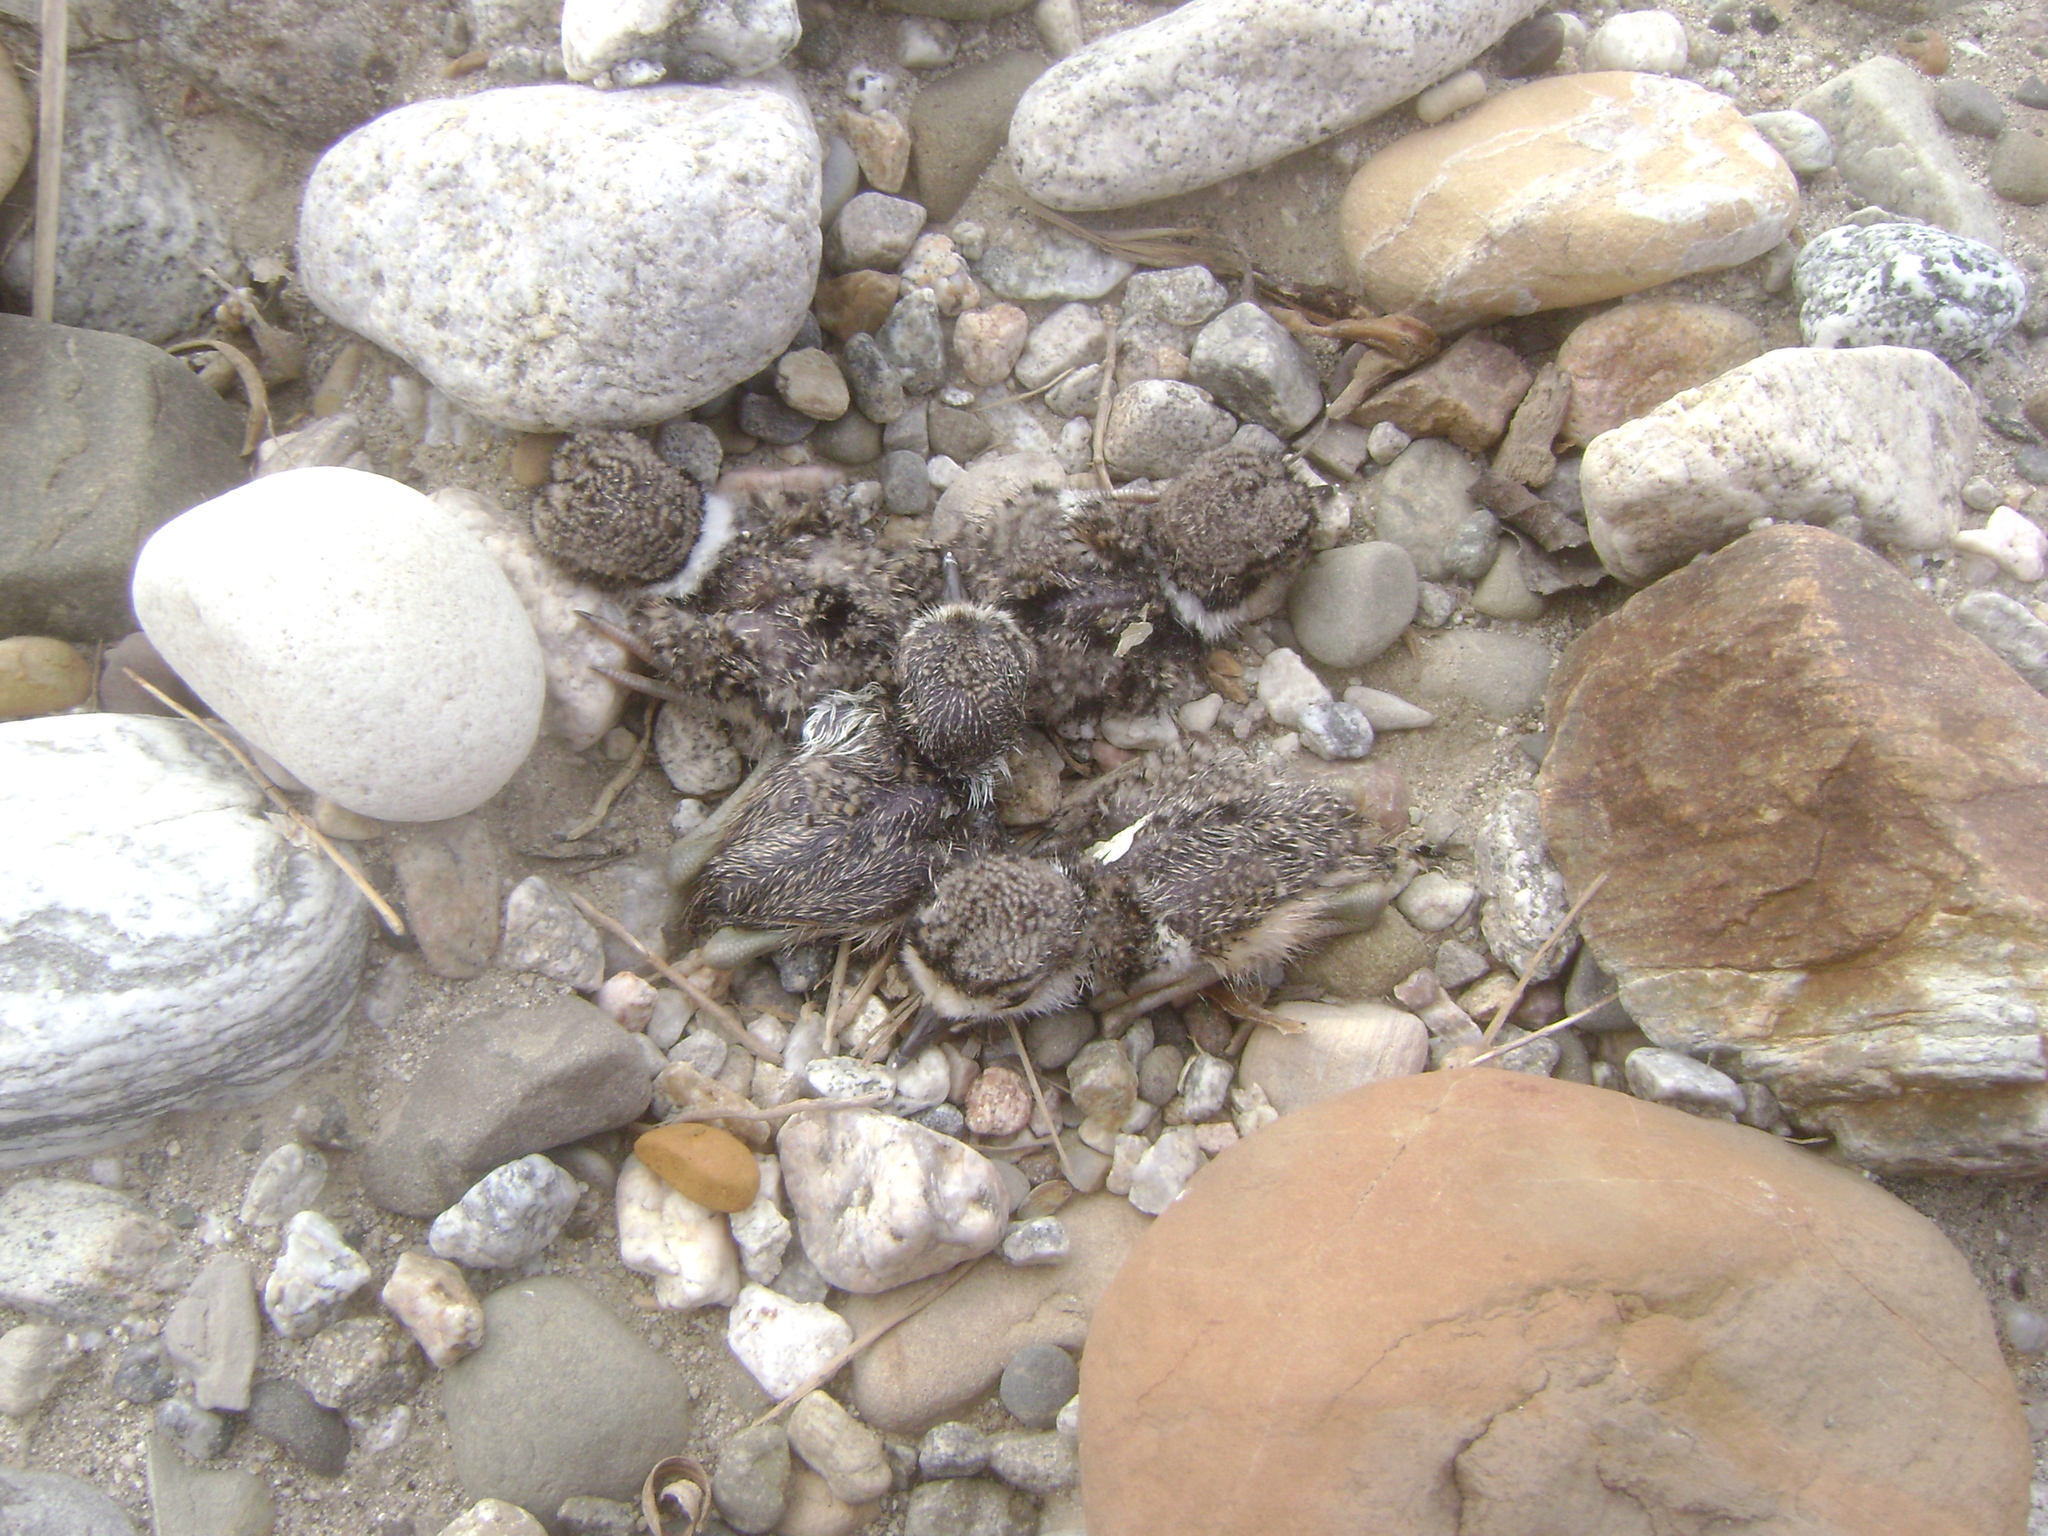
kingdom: Animalia
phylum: Chordata
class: Aves
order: Charadriiformes
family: Charadriidae
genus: Charadrius
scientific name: Charadrius vociferus
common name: Killdeer
